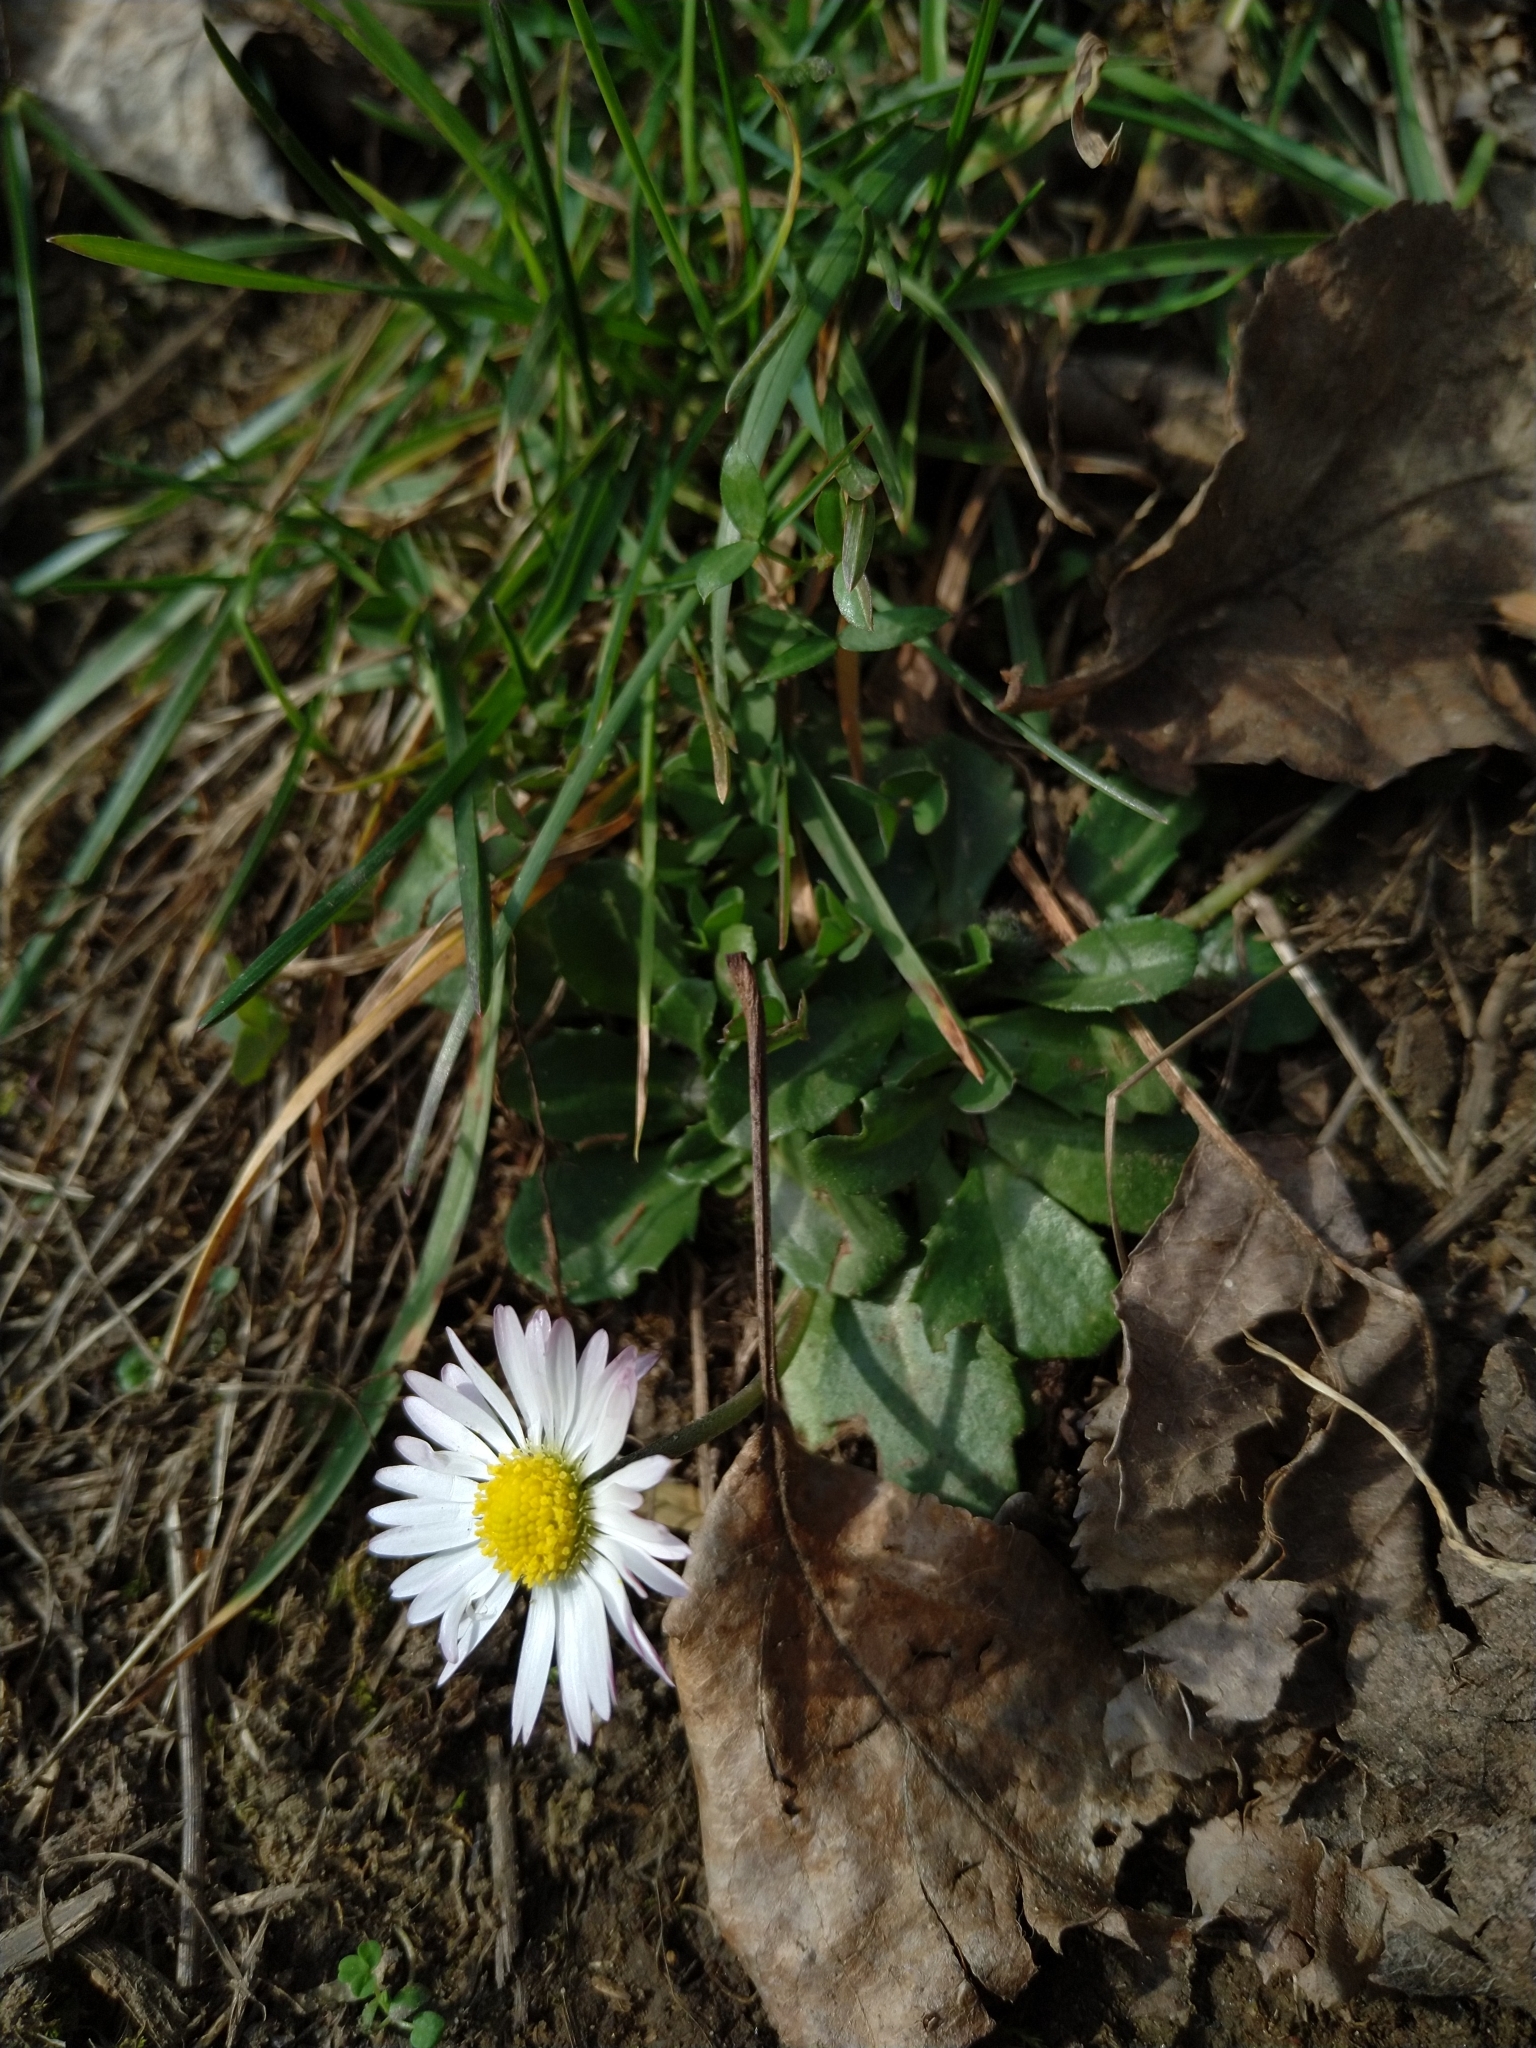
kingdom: Plantae
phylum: Tracheophyta
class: Magnoliopsida
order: Asterales
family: Asteraceae
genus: Bellis
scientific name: Bellis perennis
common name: Lawndaisy
